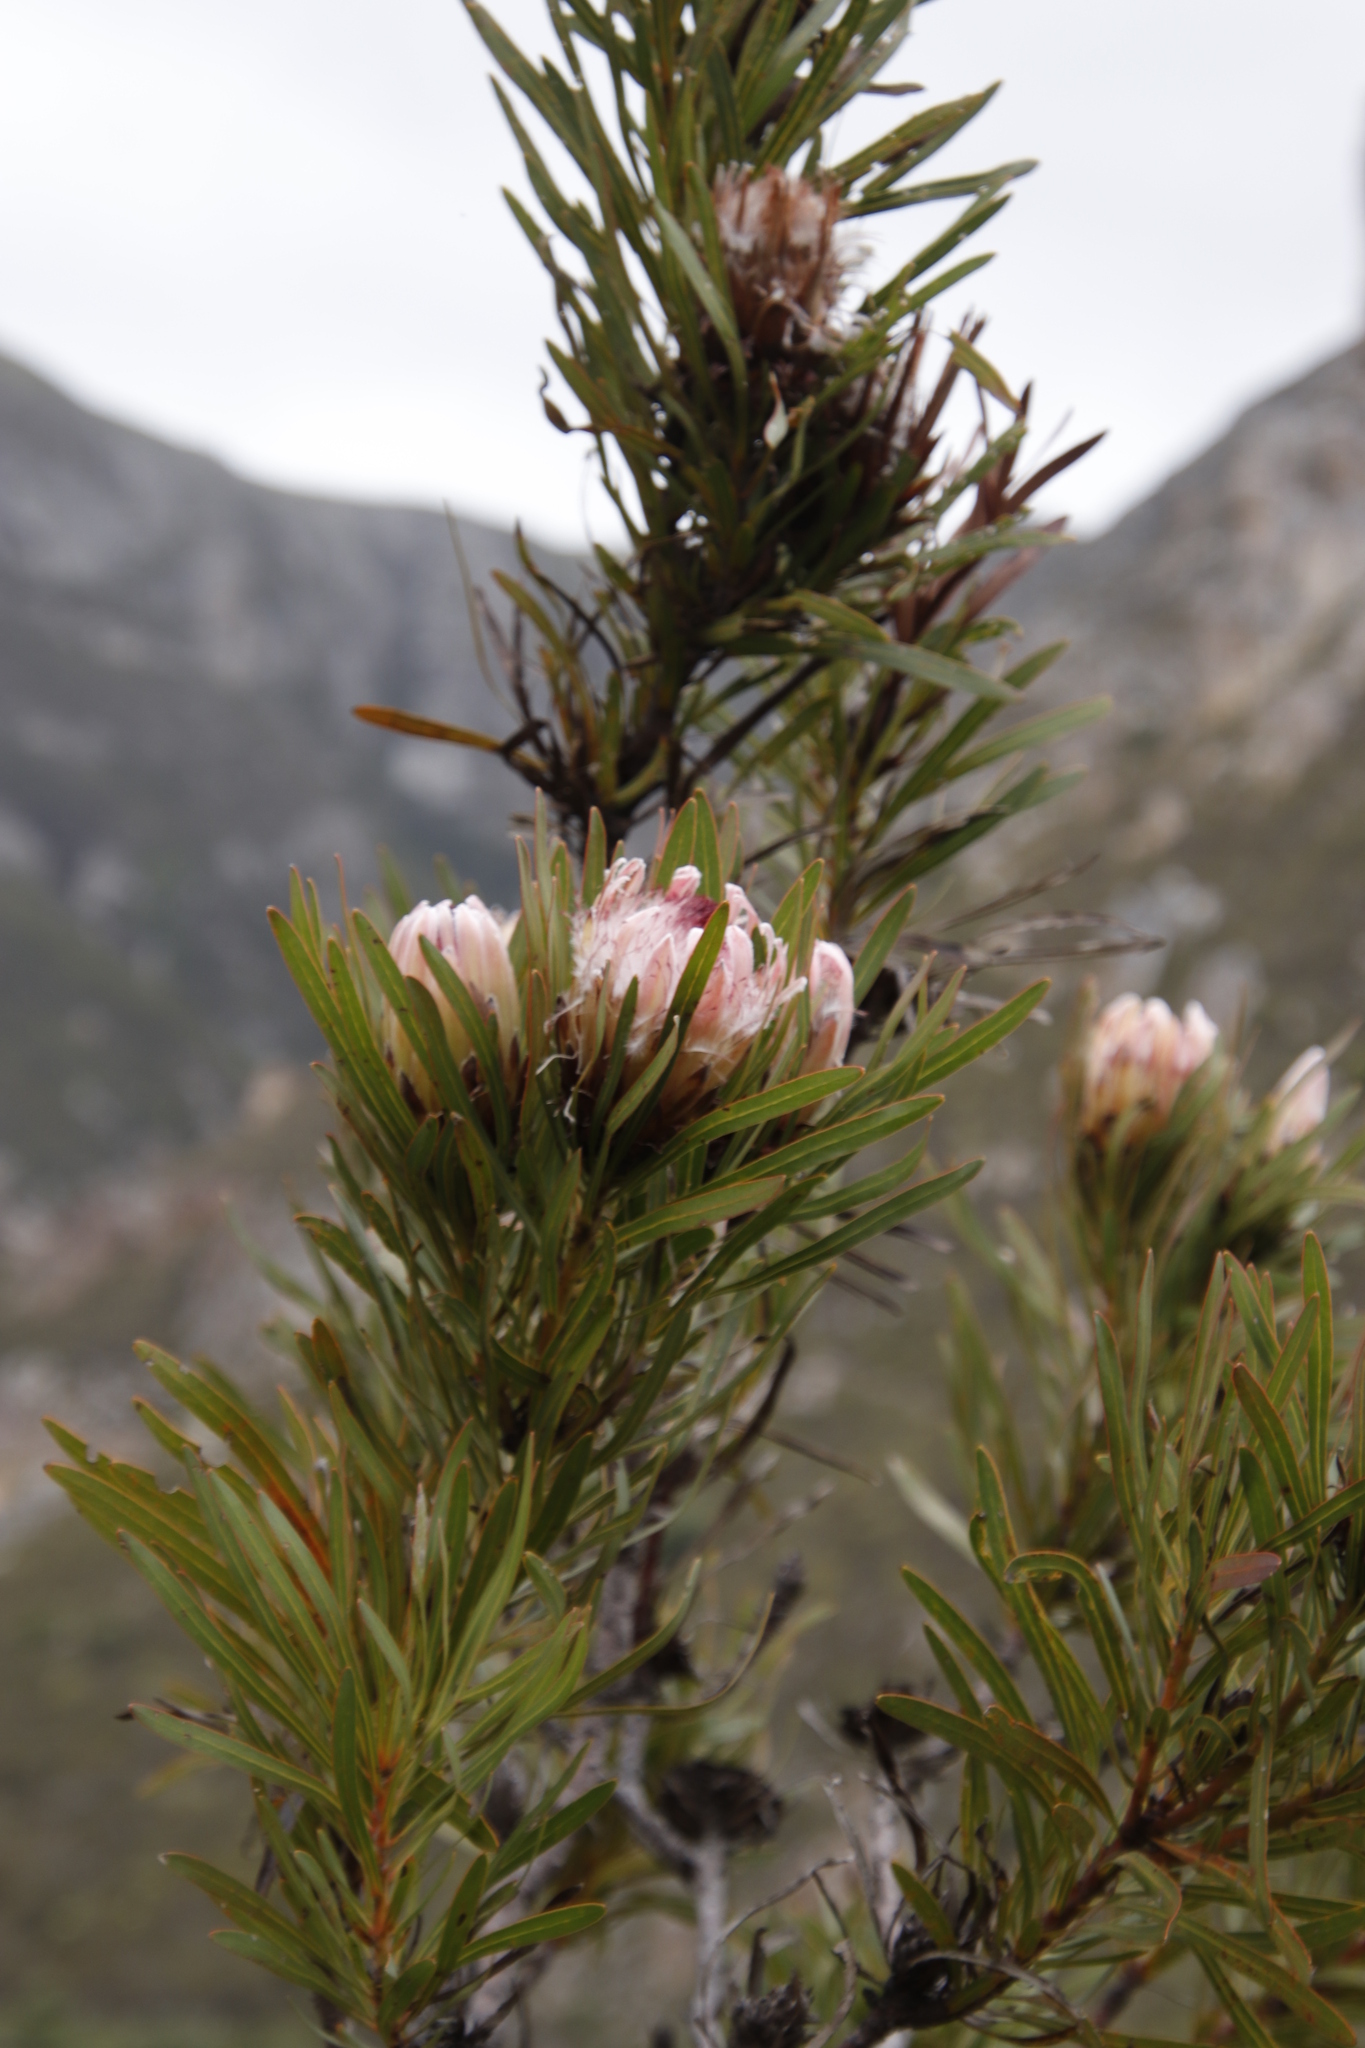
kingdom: Plantae
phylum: Tracheophyta
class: Magnoliopsida
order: Proteales
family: Proteaceae
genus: Protea
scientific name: Protea
